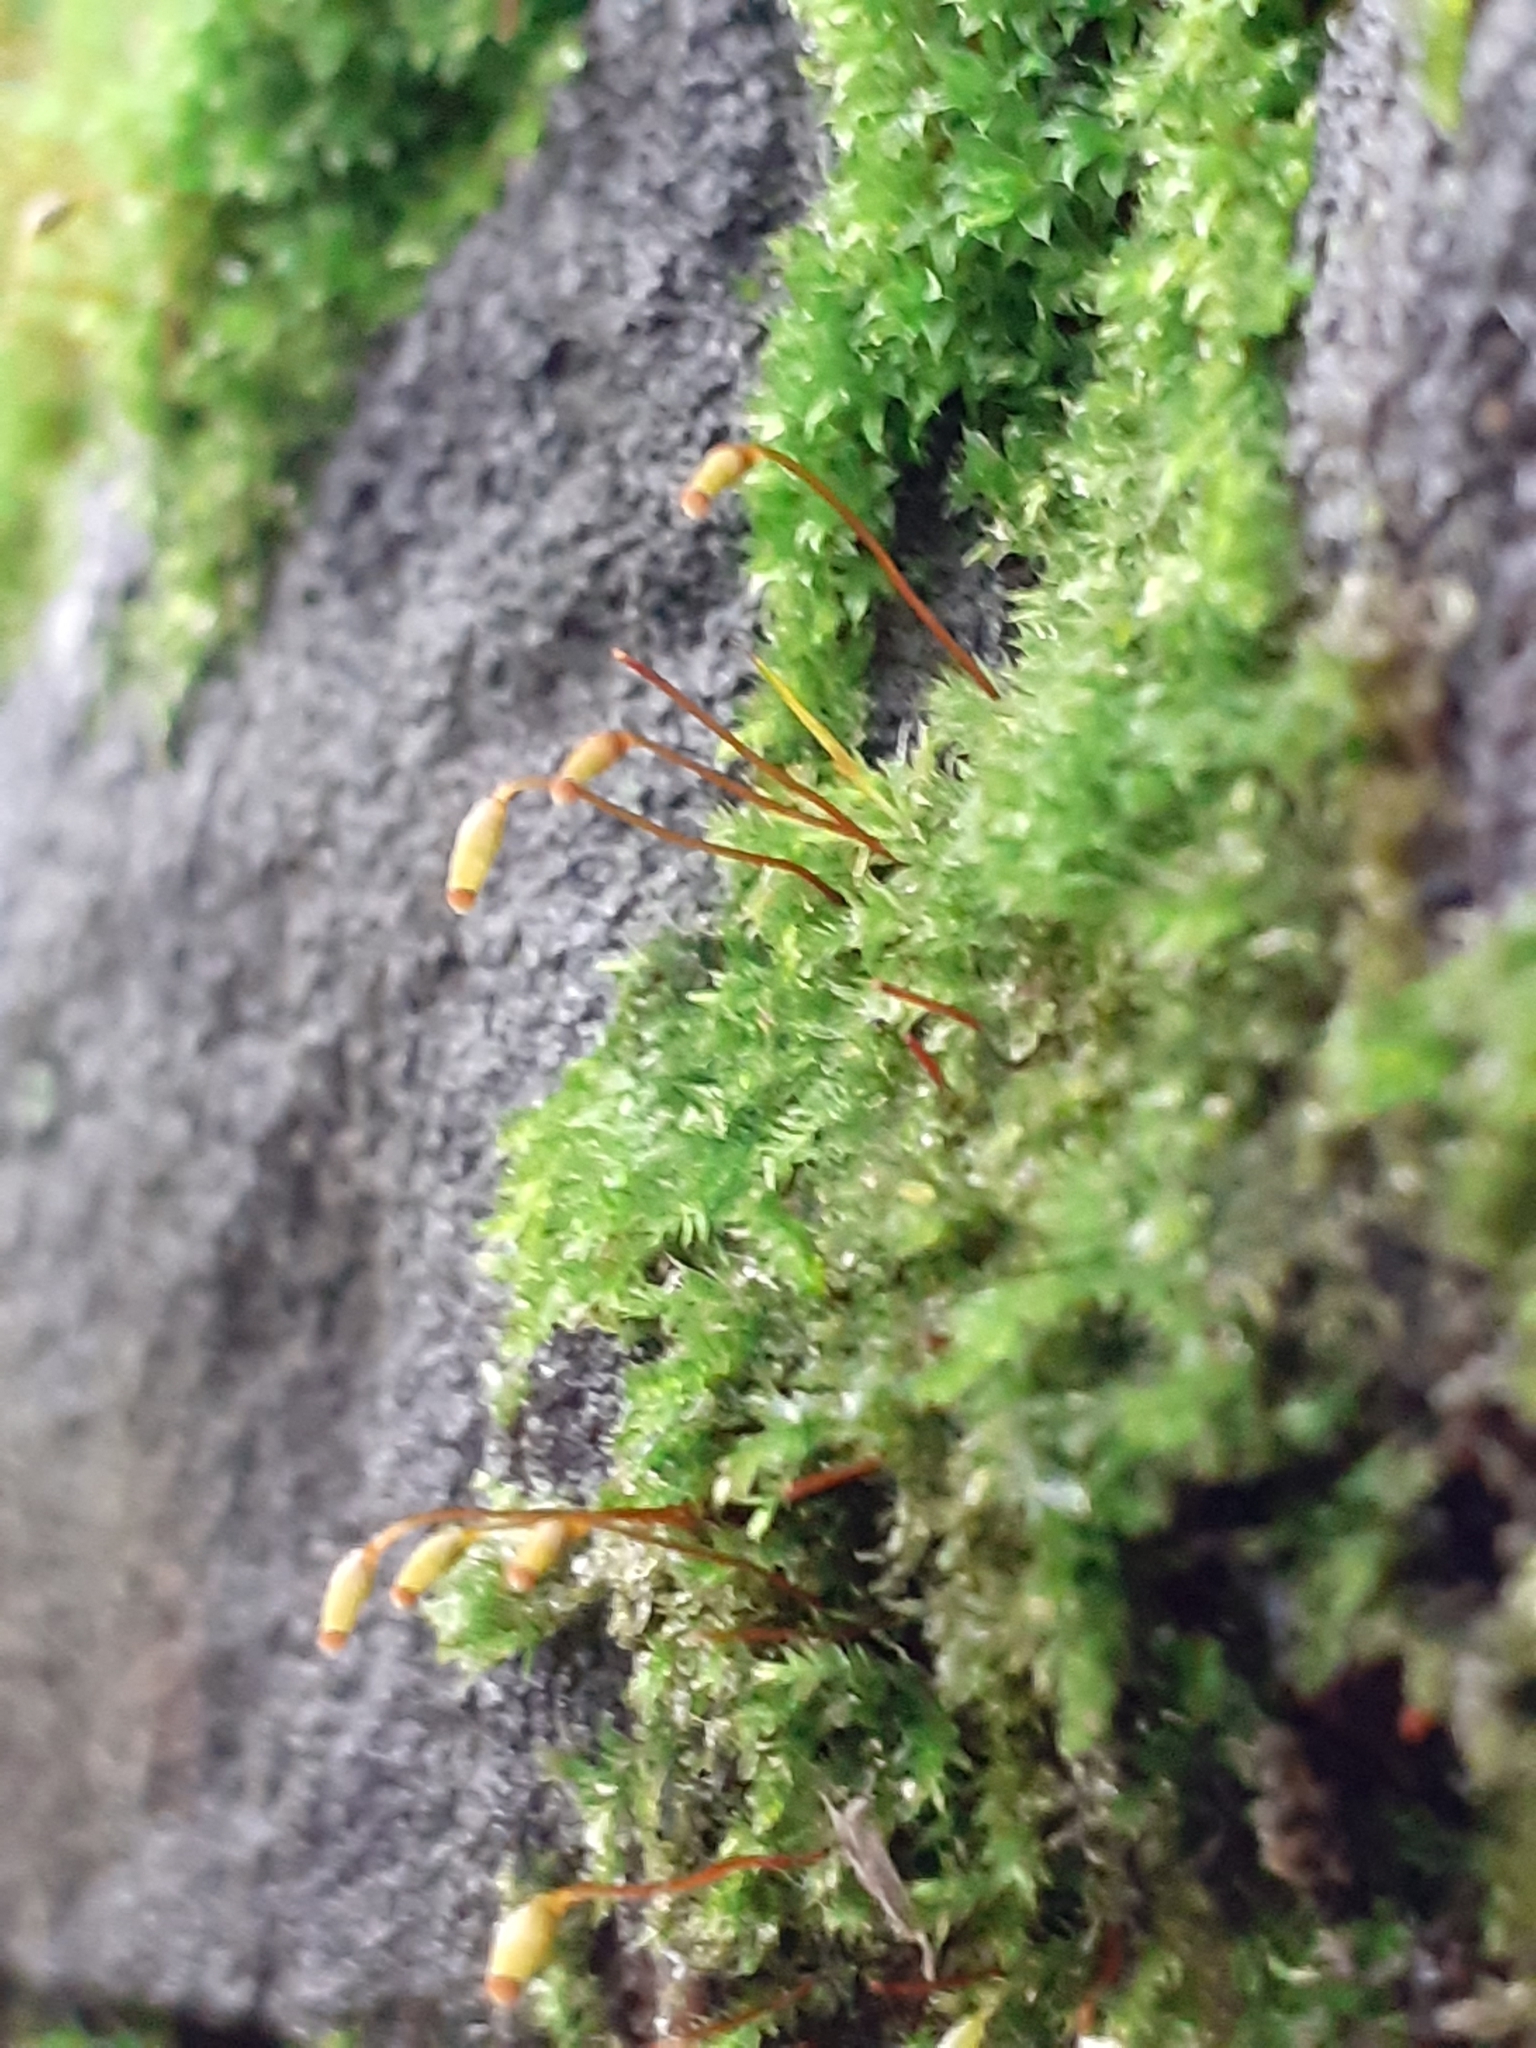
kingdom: Plantae
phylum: Bryophyta
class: Bryopsida
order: Hypnales
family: Brachytheciaceae
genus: Rhynchostegium
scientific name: Rhynchostegium confertum
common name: Clustered feather-moss
